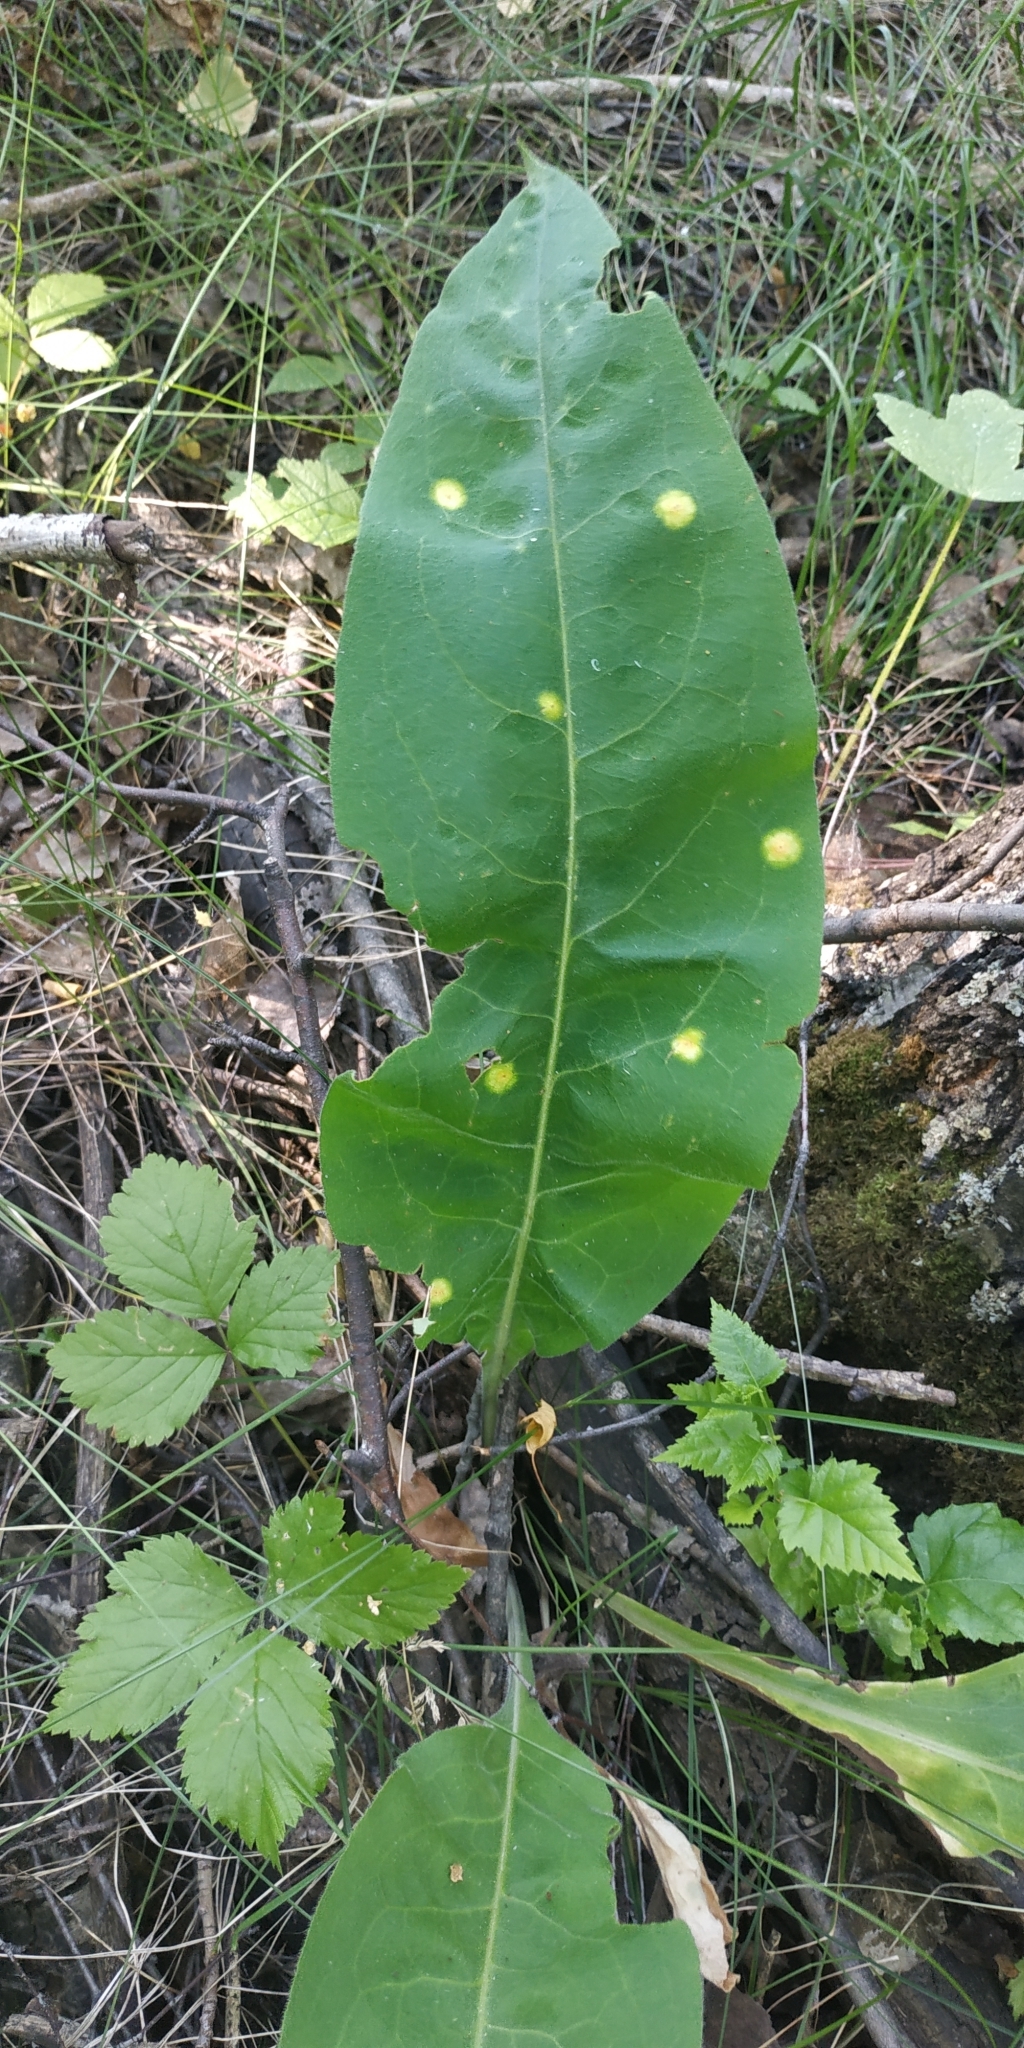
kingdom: Plantae
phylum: Tracheophyta
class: Magnoliopsida
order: Boraginales
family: Boraginaceae
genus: Pulmonaria
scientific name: Pulmonaria mollis
